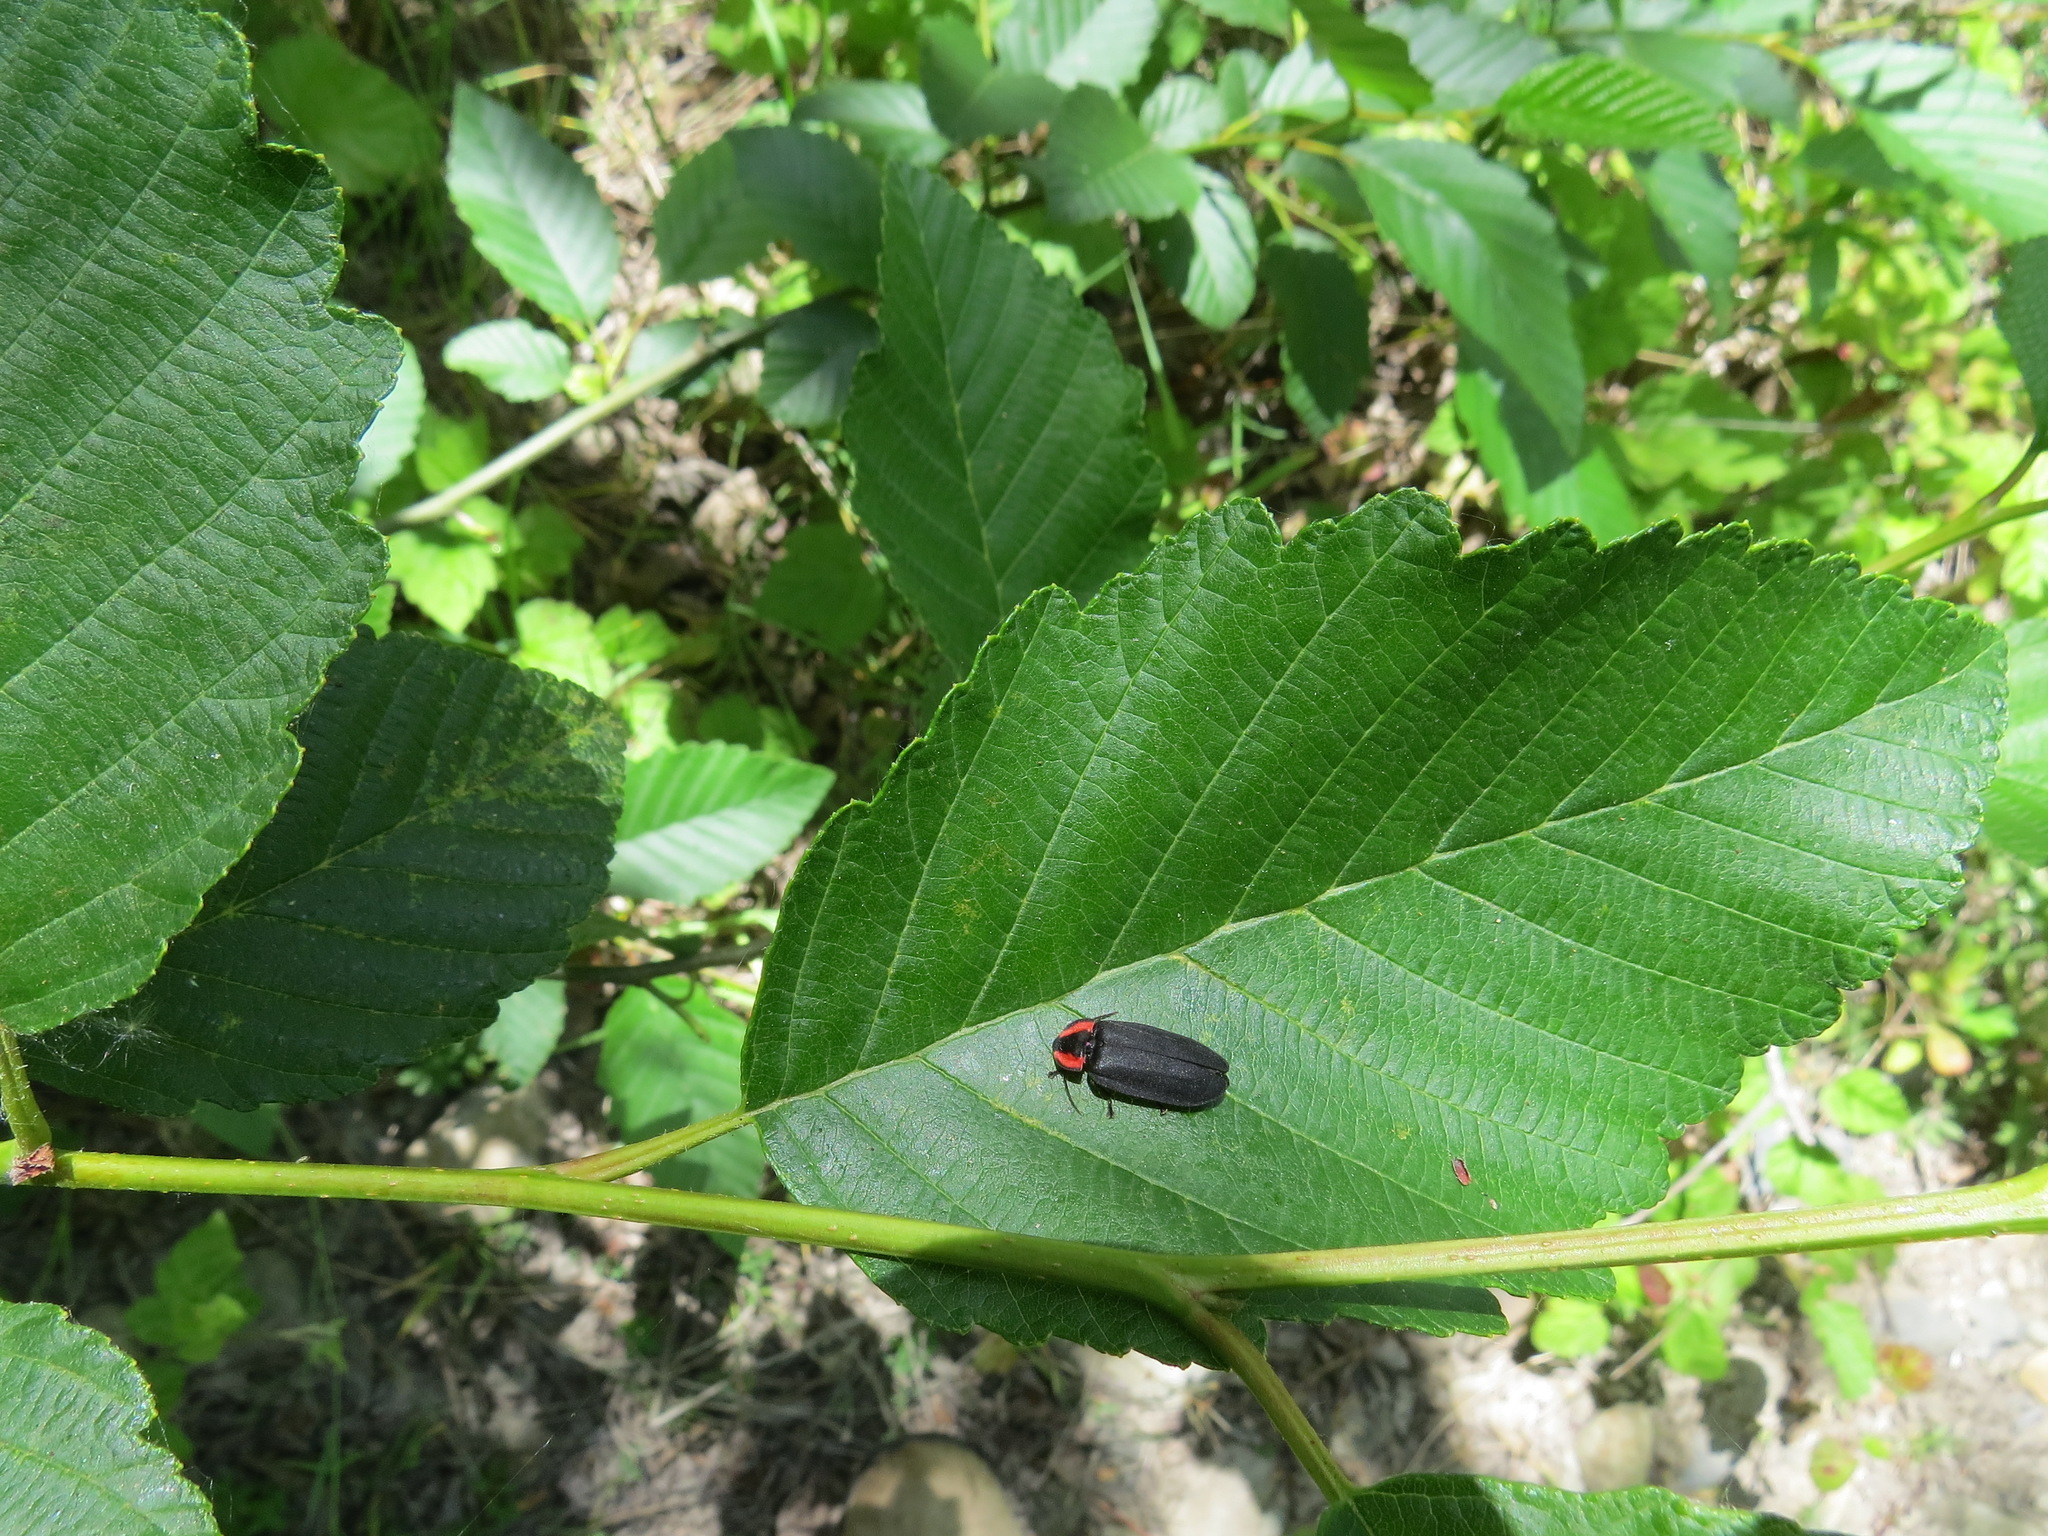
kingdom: Animalia
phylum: Arthropoda
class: Insecta
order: Coleoptera
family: Lampyridae
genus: Photinus
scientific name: Photinus californica
